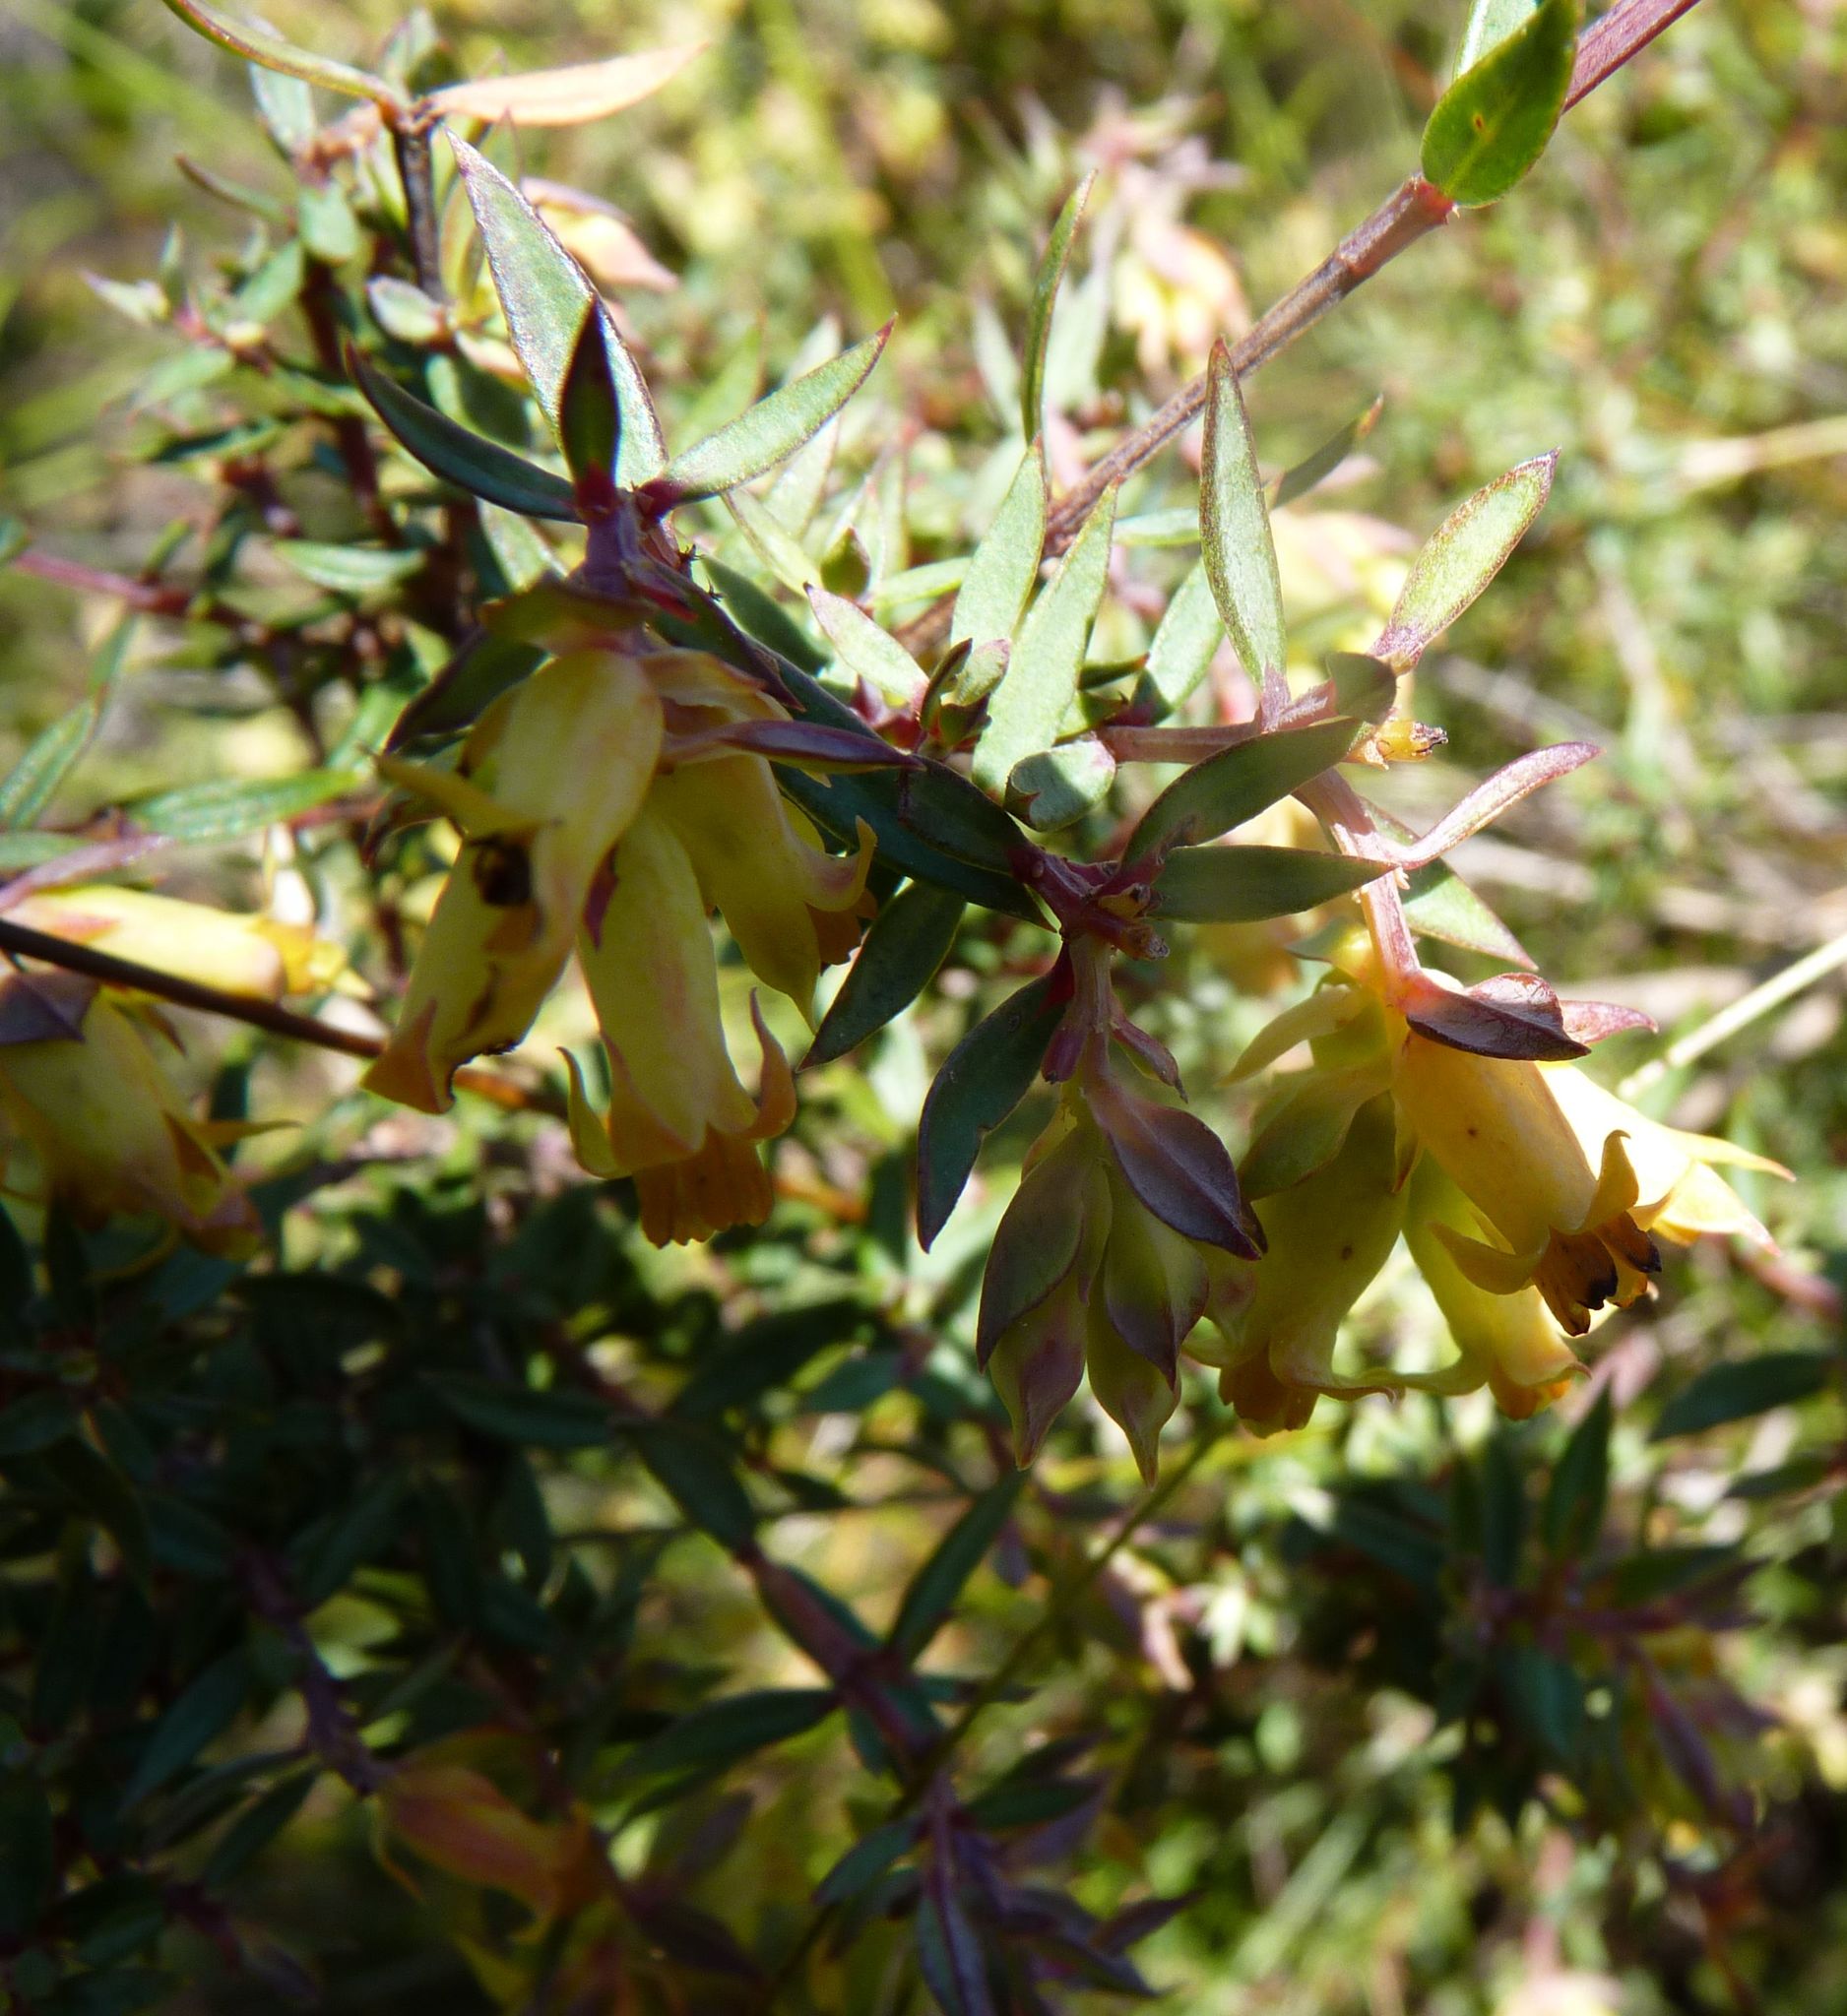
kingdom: Plantae
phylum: Tracheophyta
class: Magnoliopsida
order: Myrtales
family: Penaeaceae
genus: Penaea
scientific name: Penaea acutifolia
